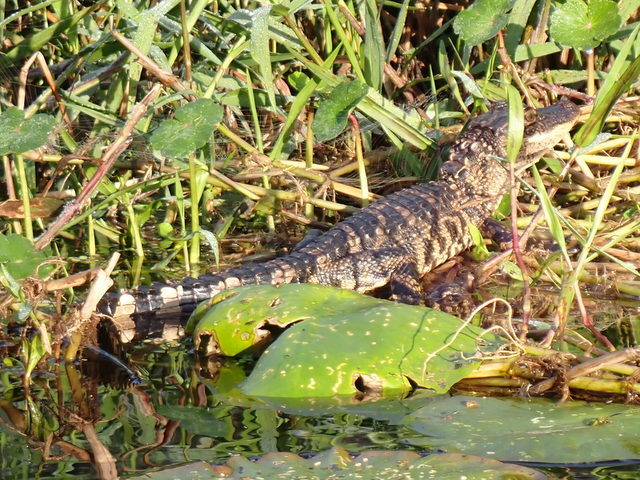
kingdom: Animalia
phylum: Chordata
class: Crocodylia
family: Alligatoridae
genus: Alligator
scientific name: Alligator mississippiensis
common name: American alligator
